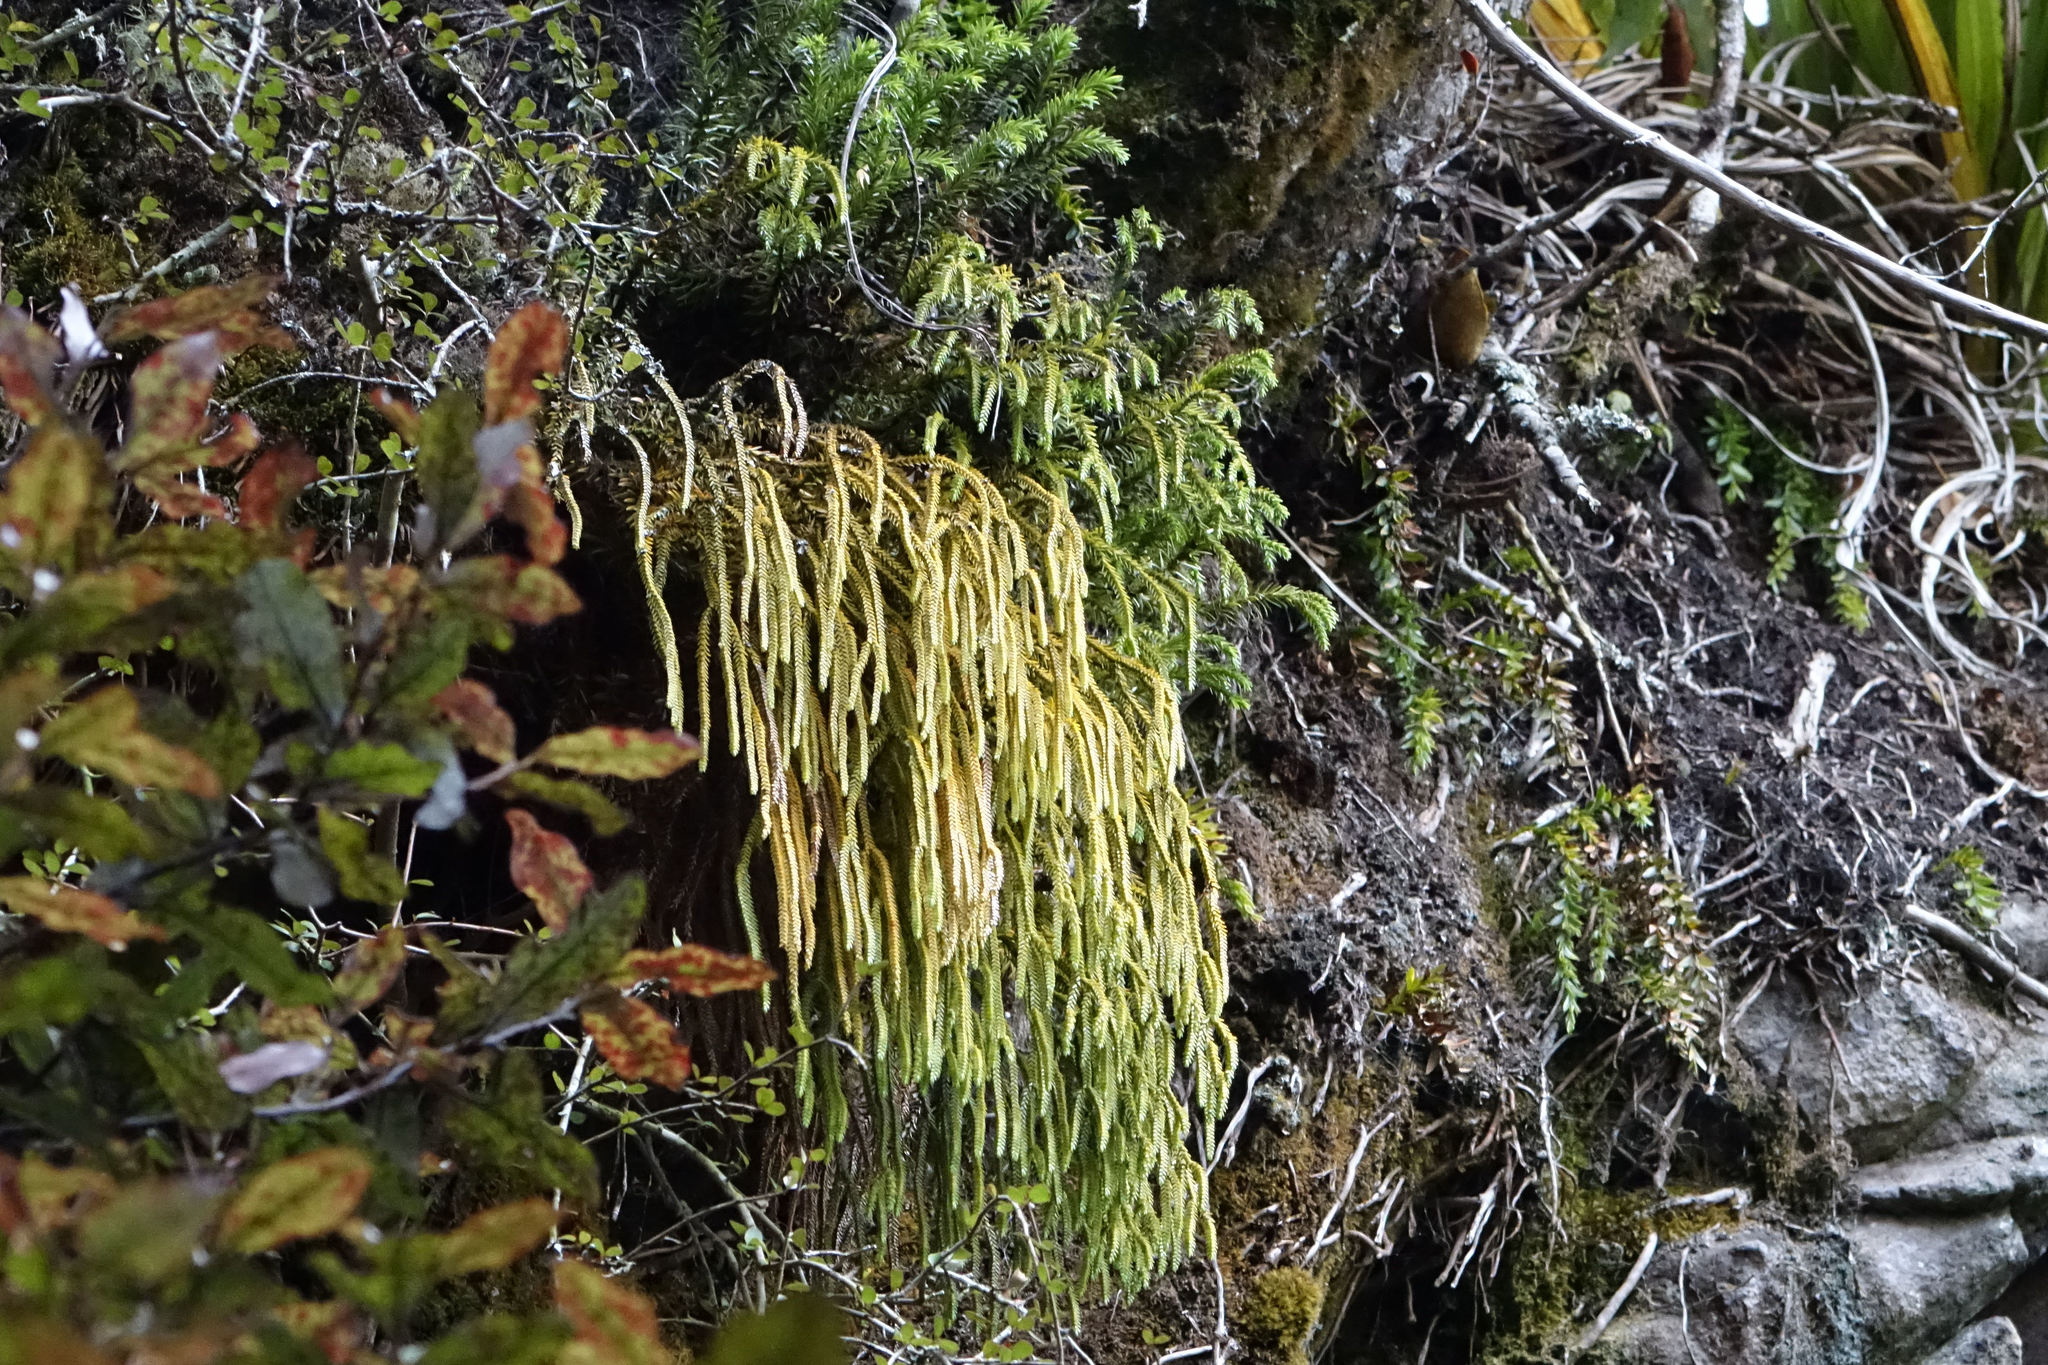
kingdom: Plantae
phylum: Tracheophyta
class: Lycopodiopsida
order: Lycopodiales
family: Lycopodiaceae
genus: Phlegmariurus
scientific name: Phlegmariurus varius
